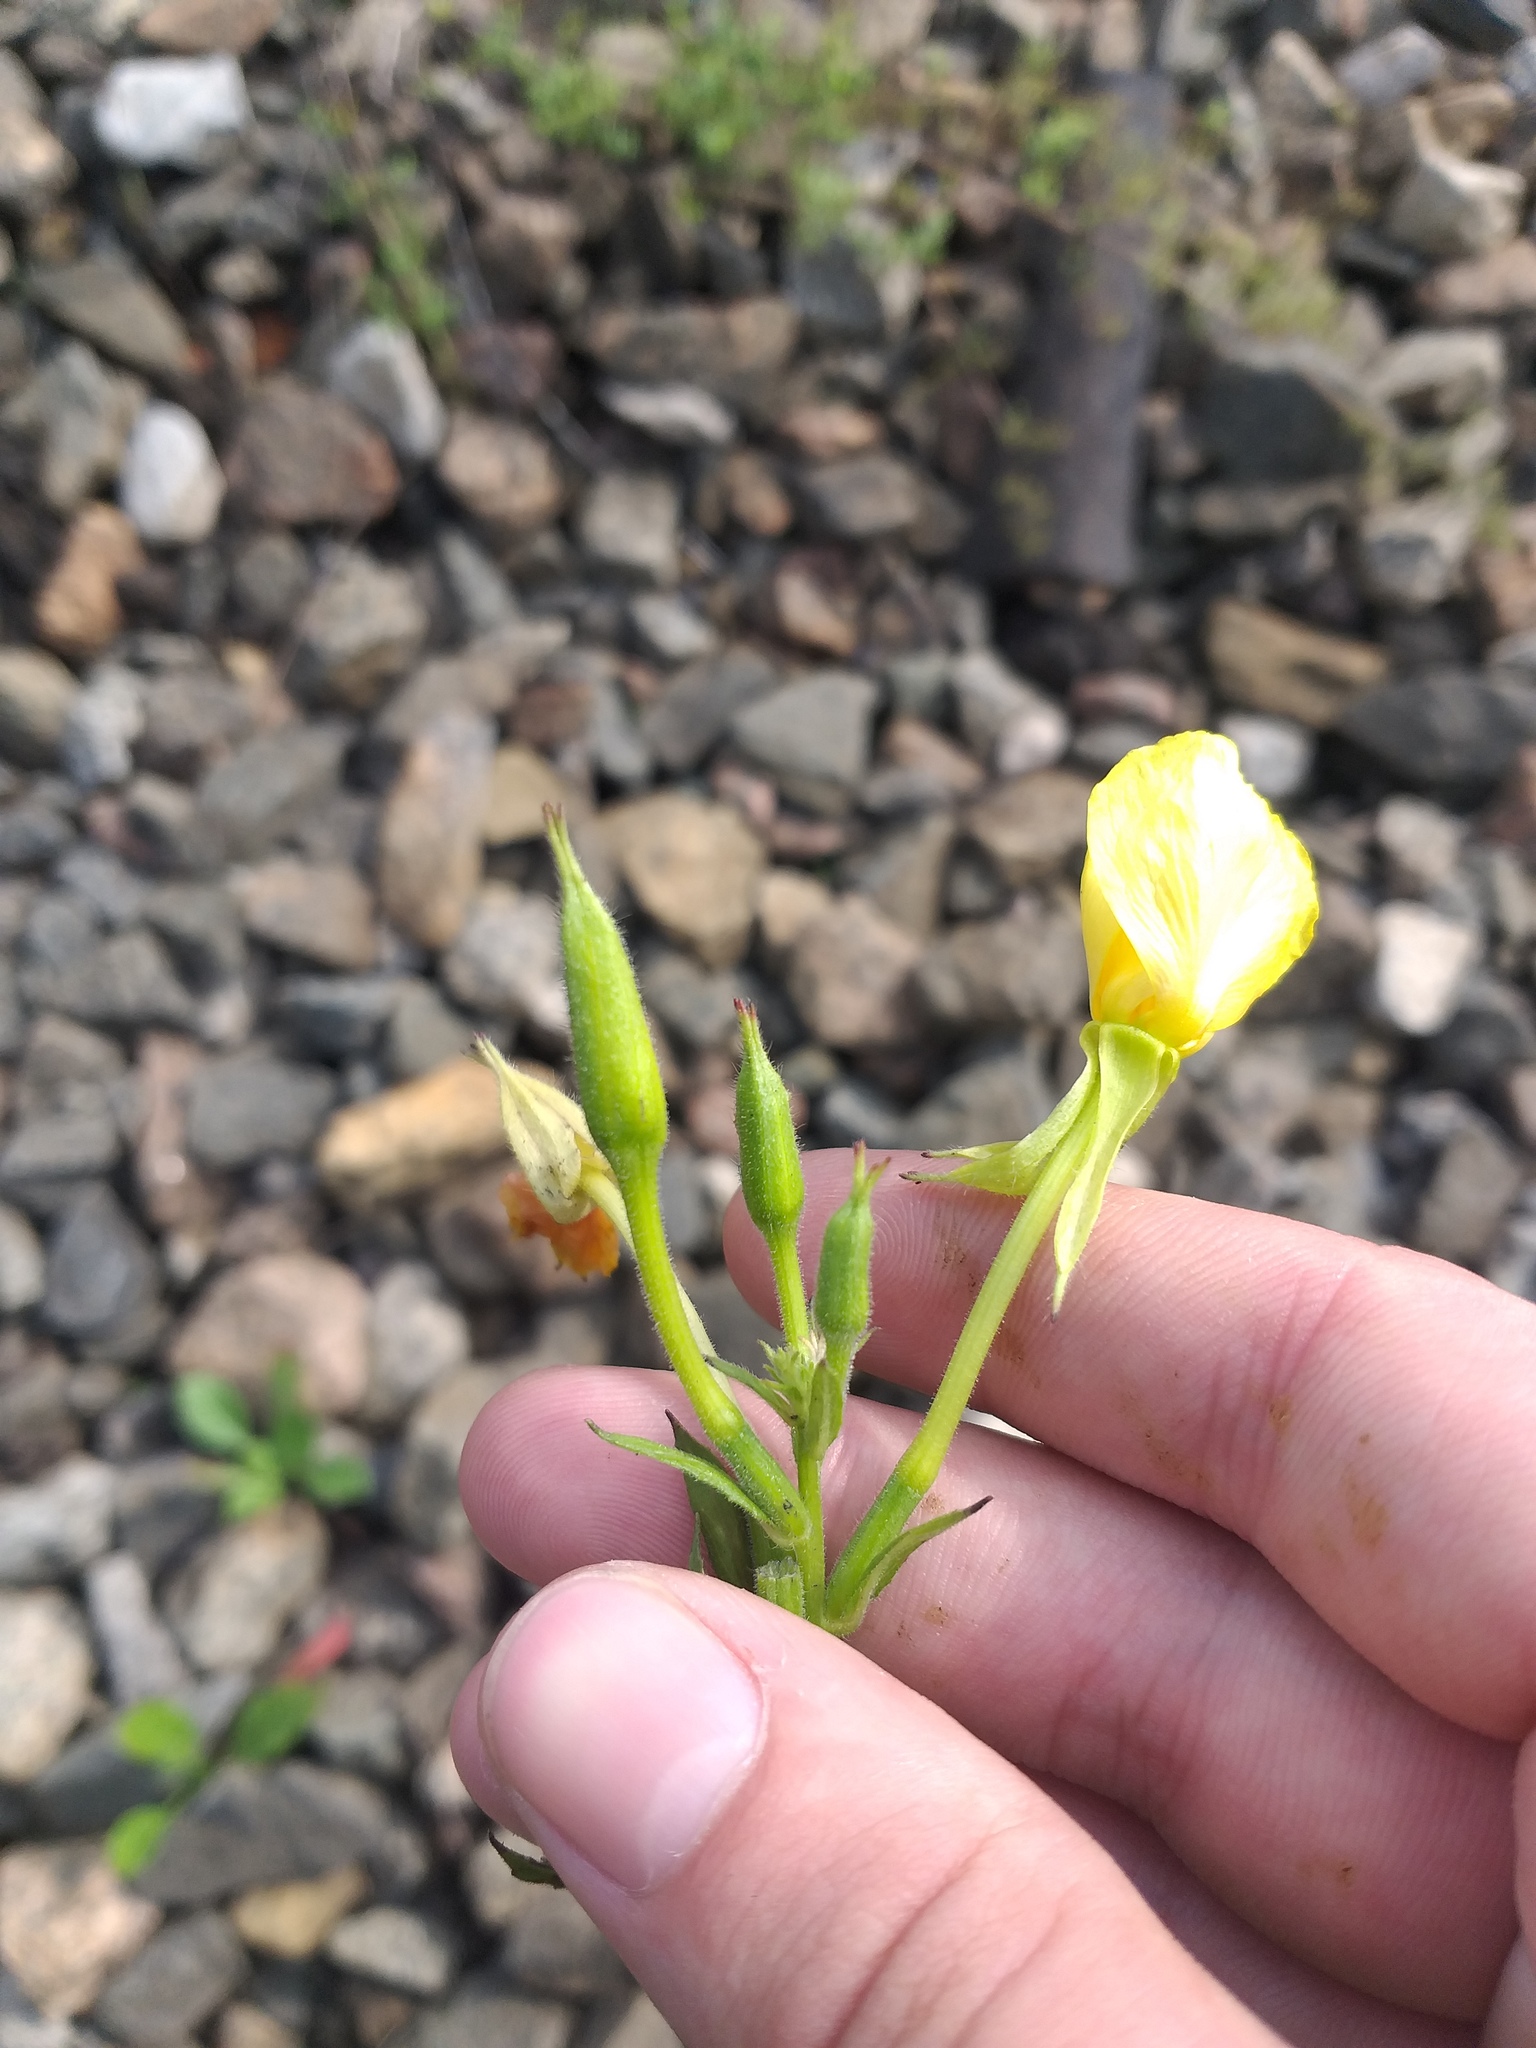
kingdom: Plantae
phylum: Tracheophyta
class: Magnoliopsida
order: Myrtales
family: Onagraceae
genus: Oenothera
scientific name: Oenothera biennis
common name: Common evening-primrose
